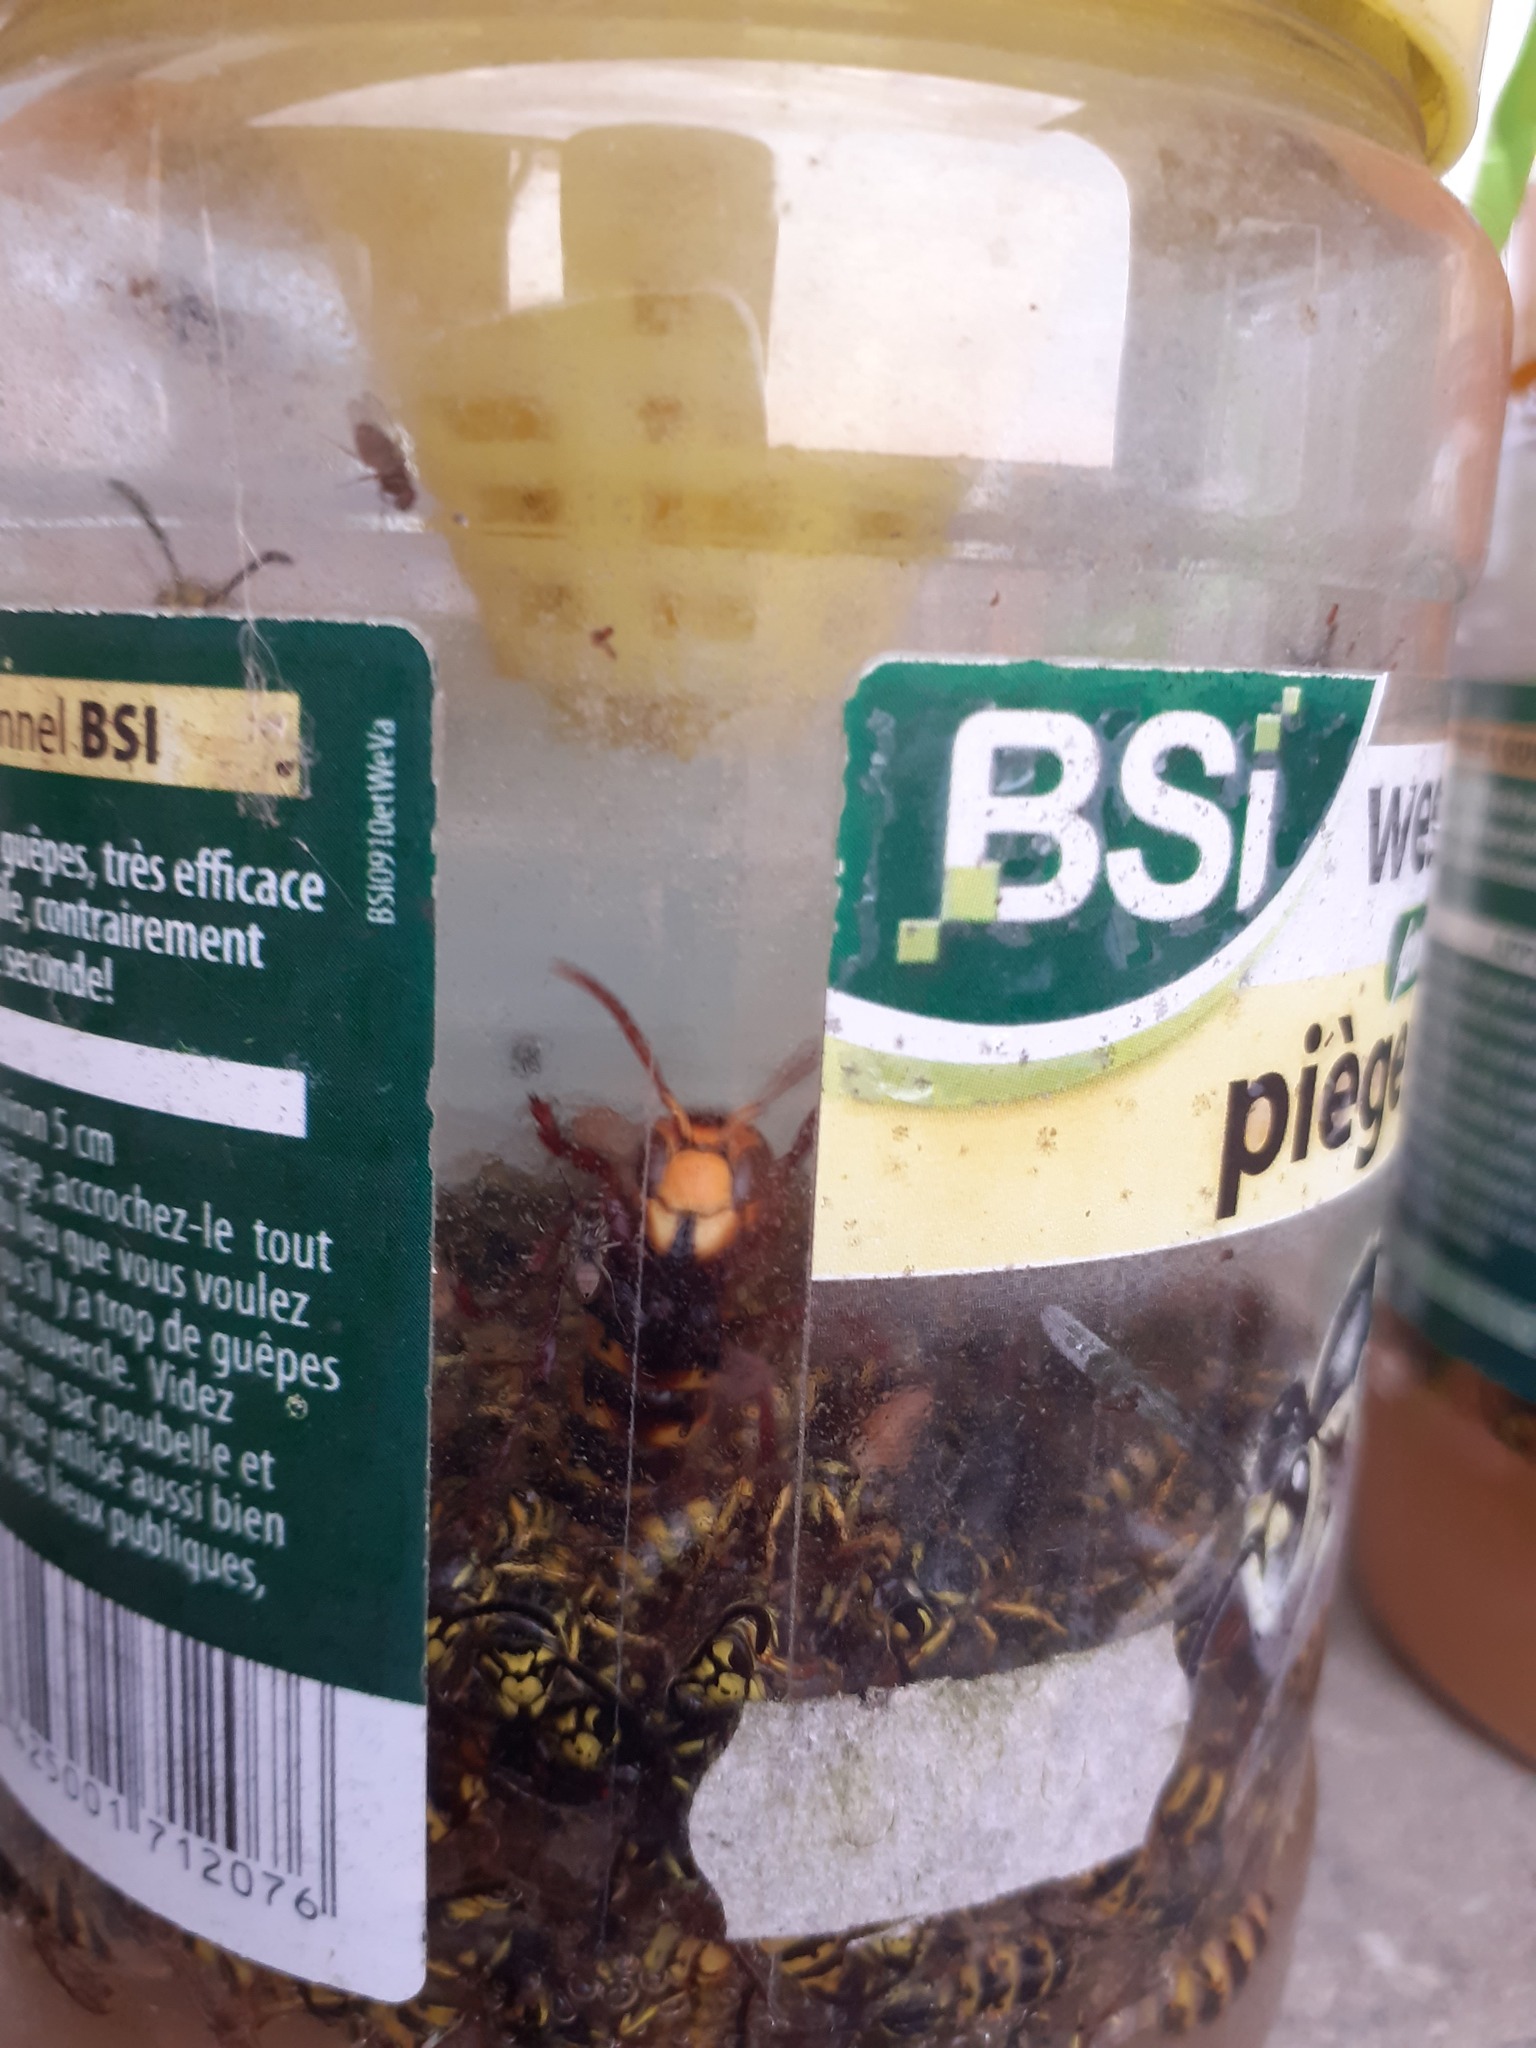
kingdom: Animalia
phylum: Arthropoda
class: Insecta
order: Hymenoptera
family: Vespidae
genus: Vespa
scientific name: Vespa crabro
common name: Hornet
